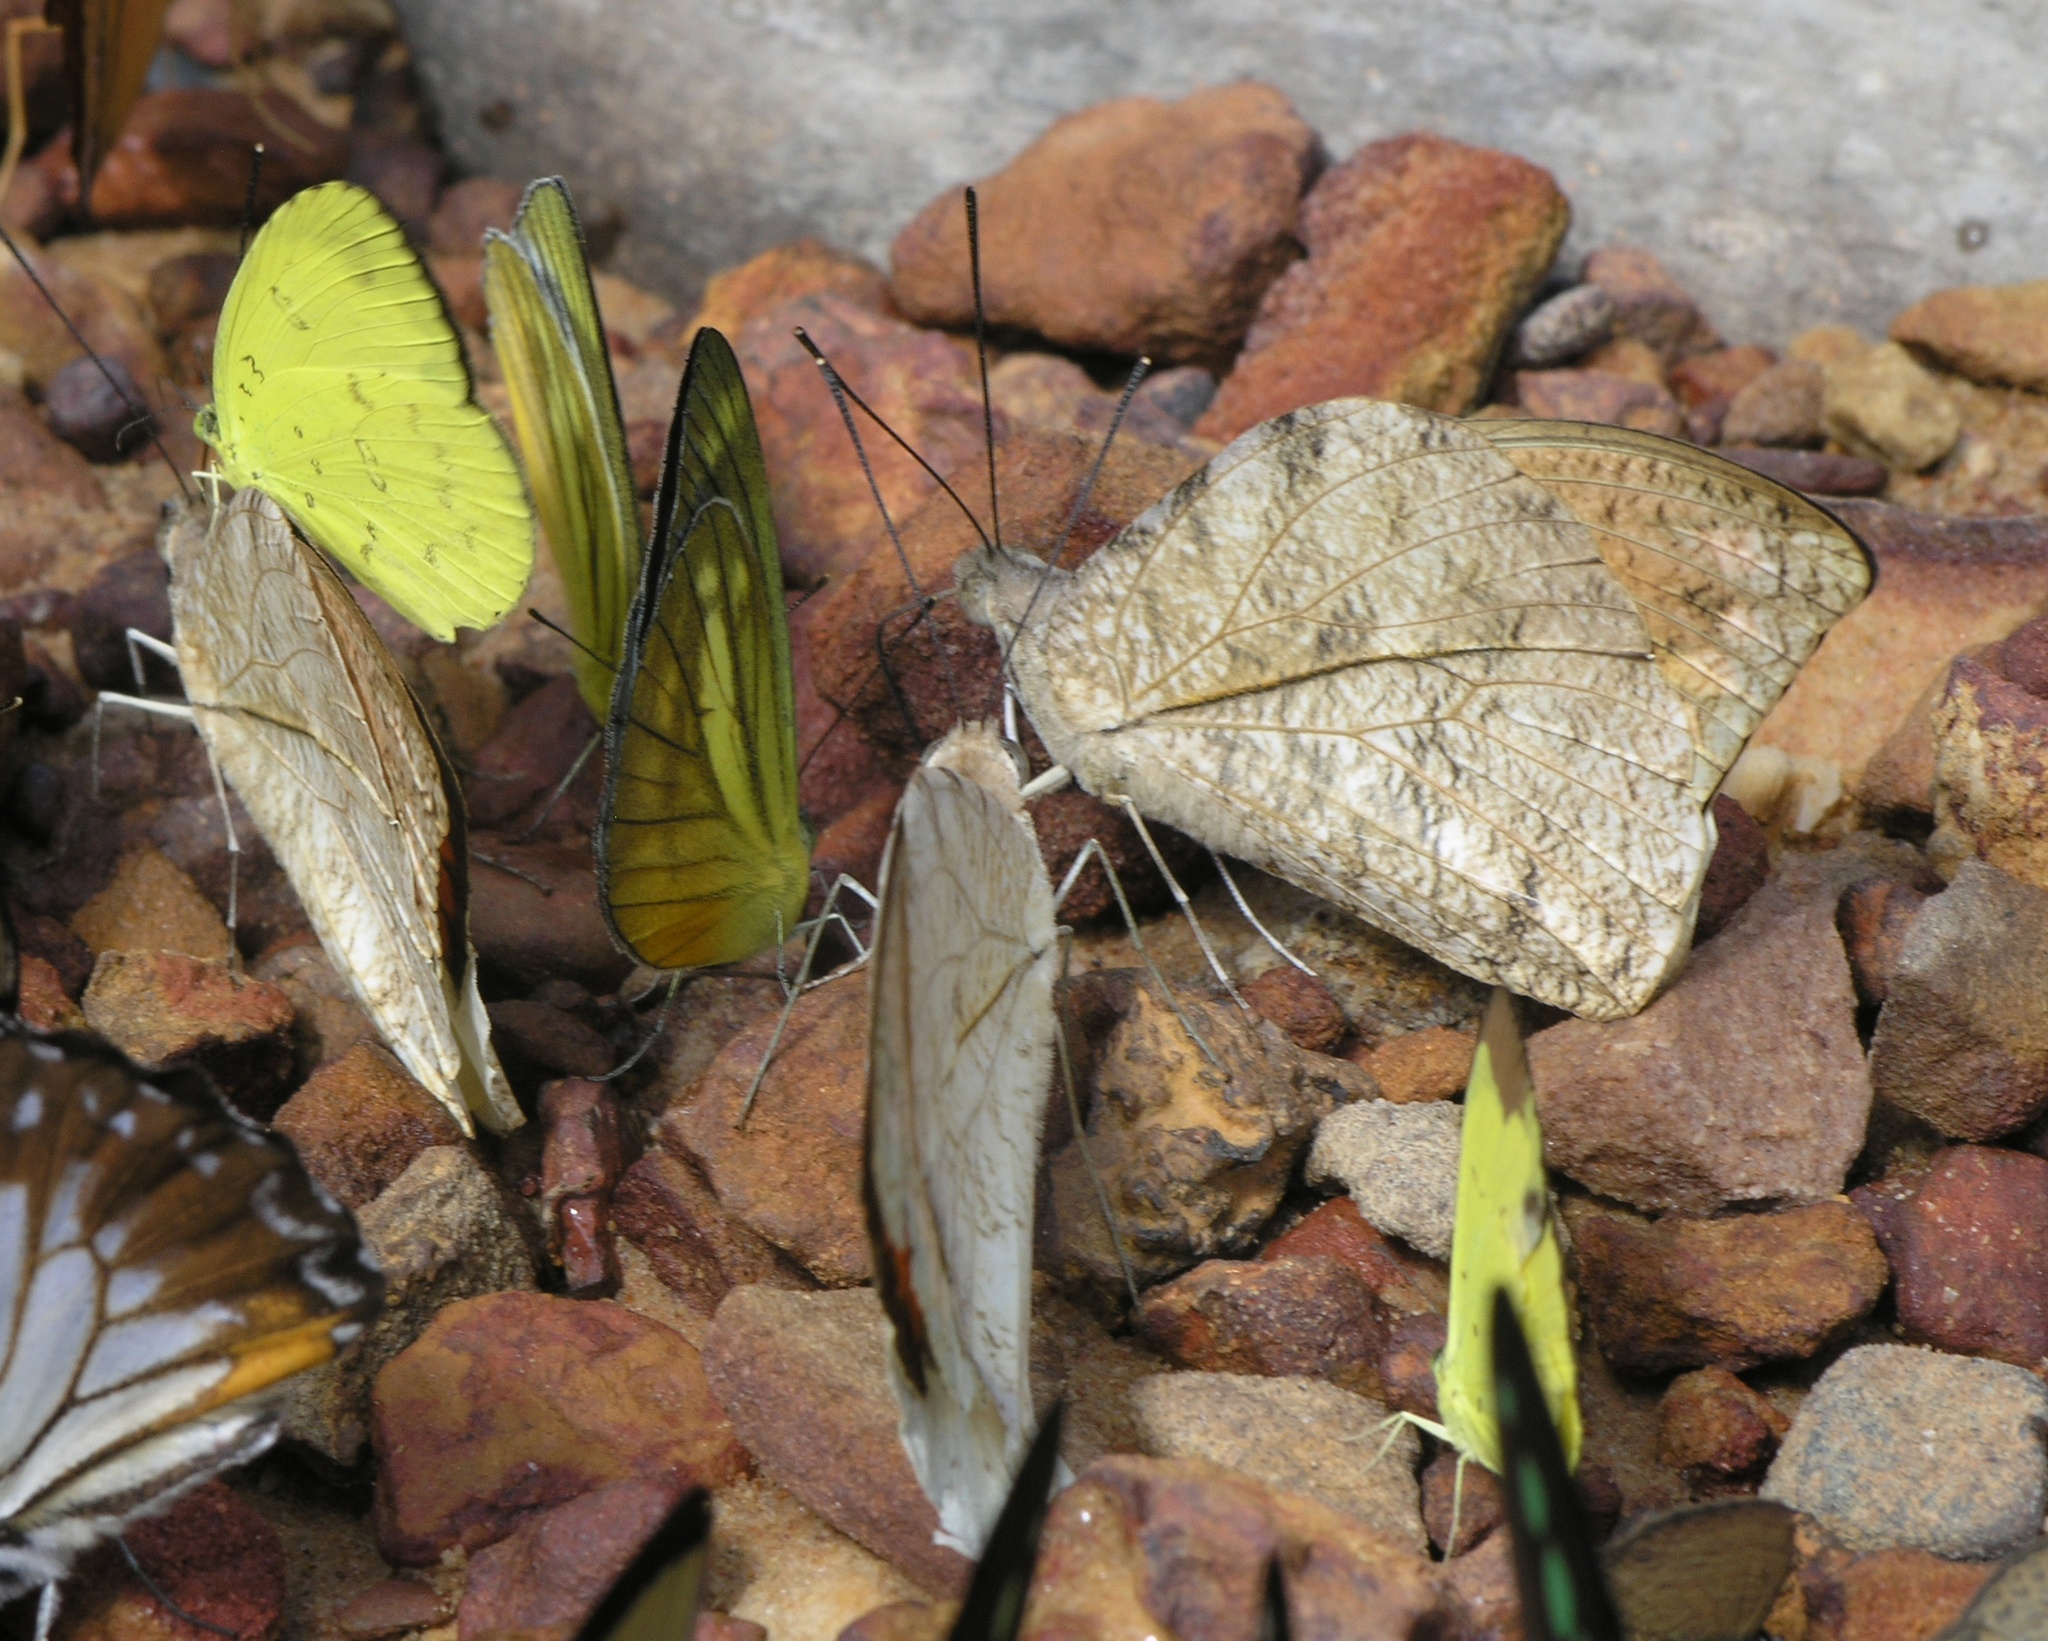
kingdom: Animalia
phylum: Arthropoda
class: Insecta
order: Lepidoptera
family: Pieridae
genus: Eurema
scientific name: Eurema blanda
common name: Three-spot grass yellow
